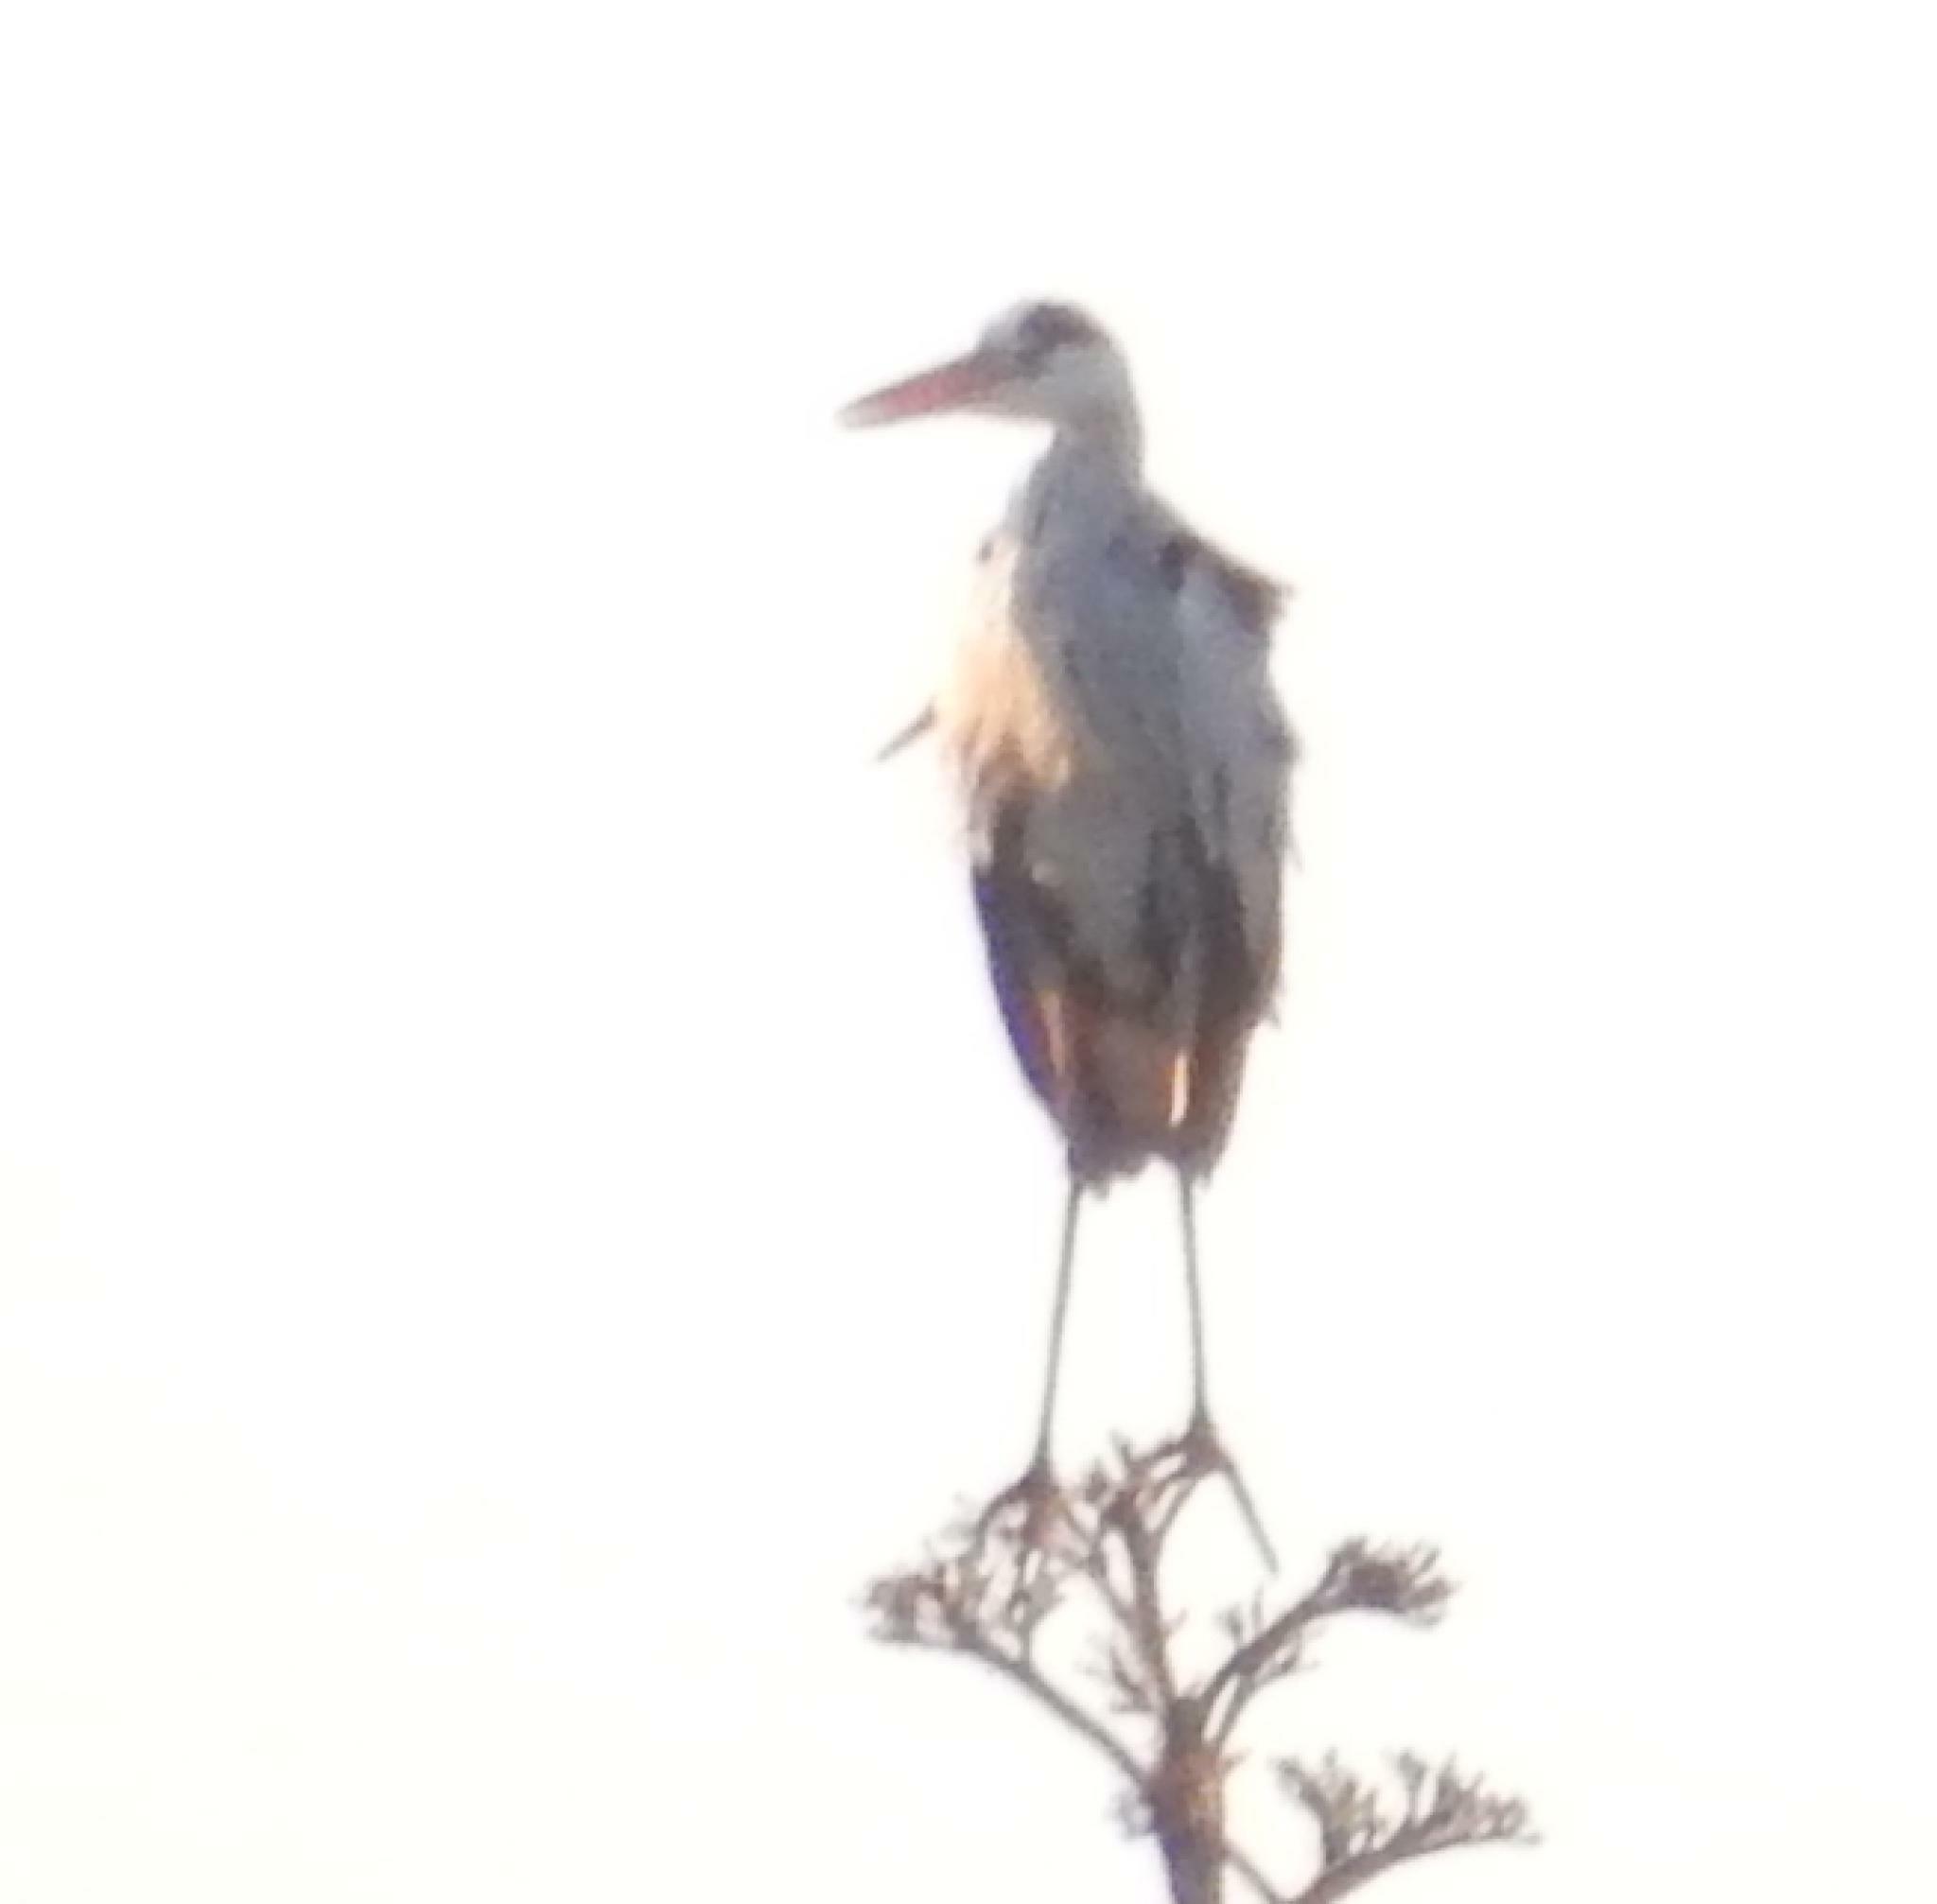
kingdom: Animalia
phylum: Chordata
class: Aves
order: Pelecaniformes
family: Ardeidae
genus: Ardea
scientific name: Ardea cinerea
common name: Grey heron
